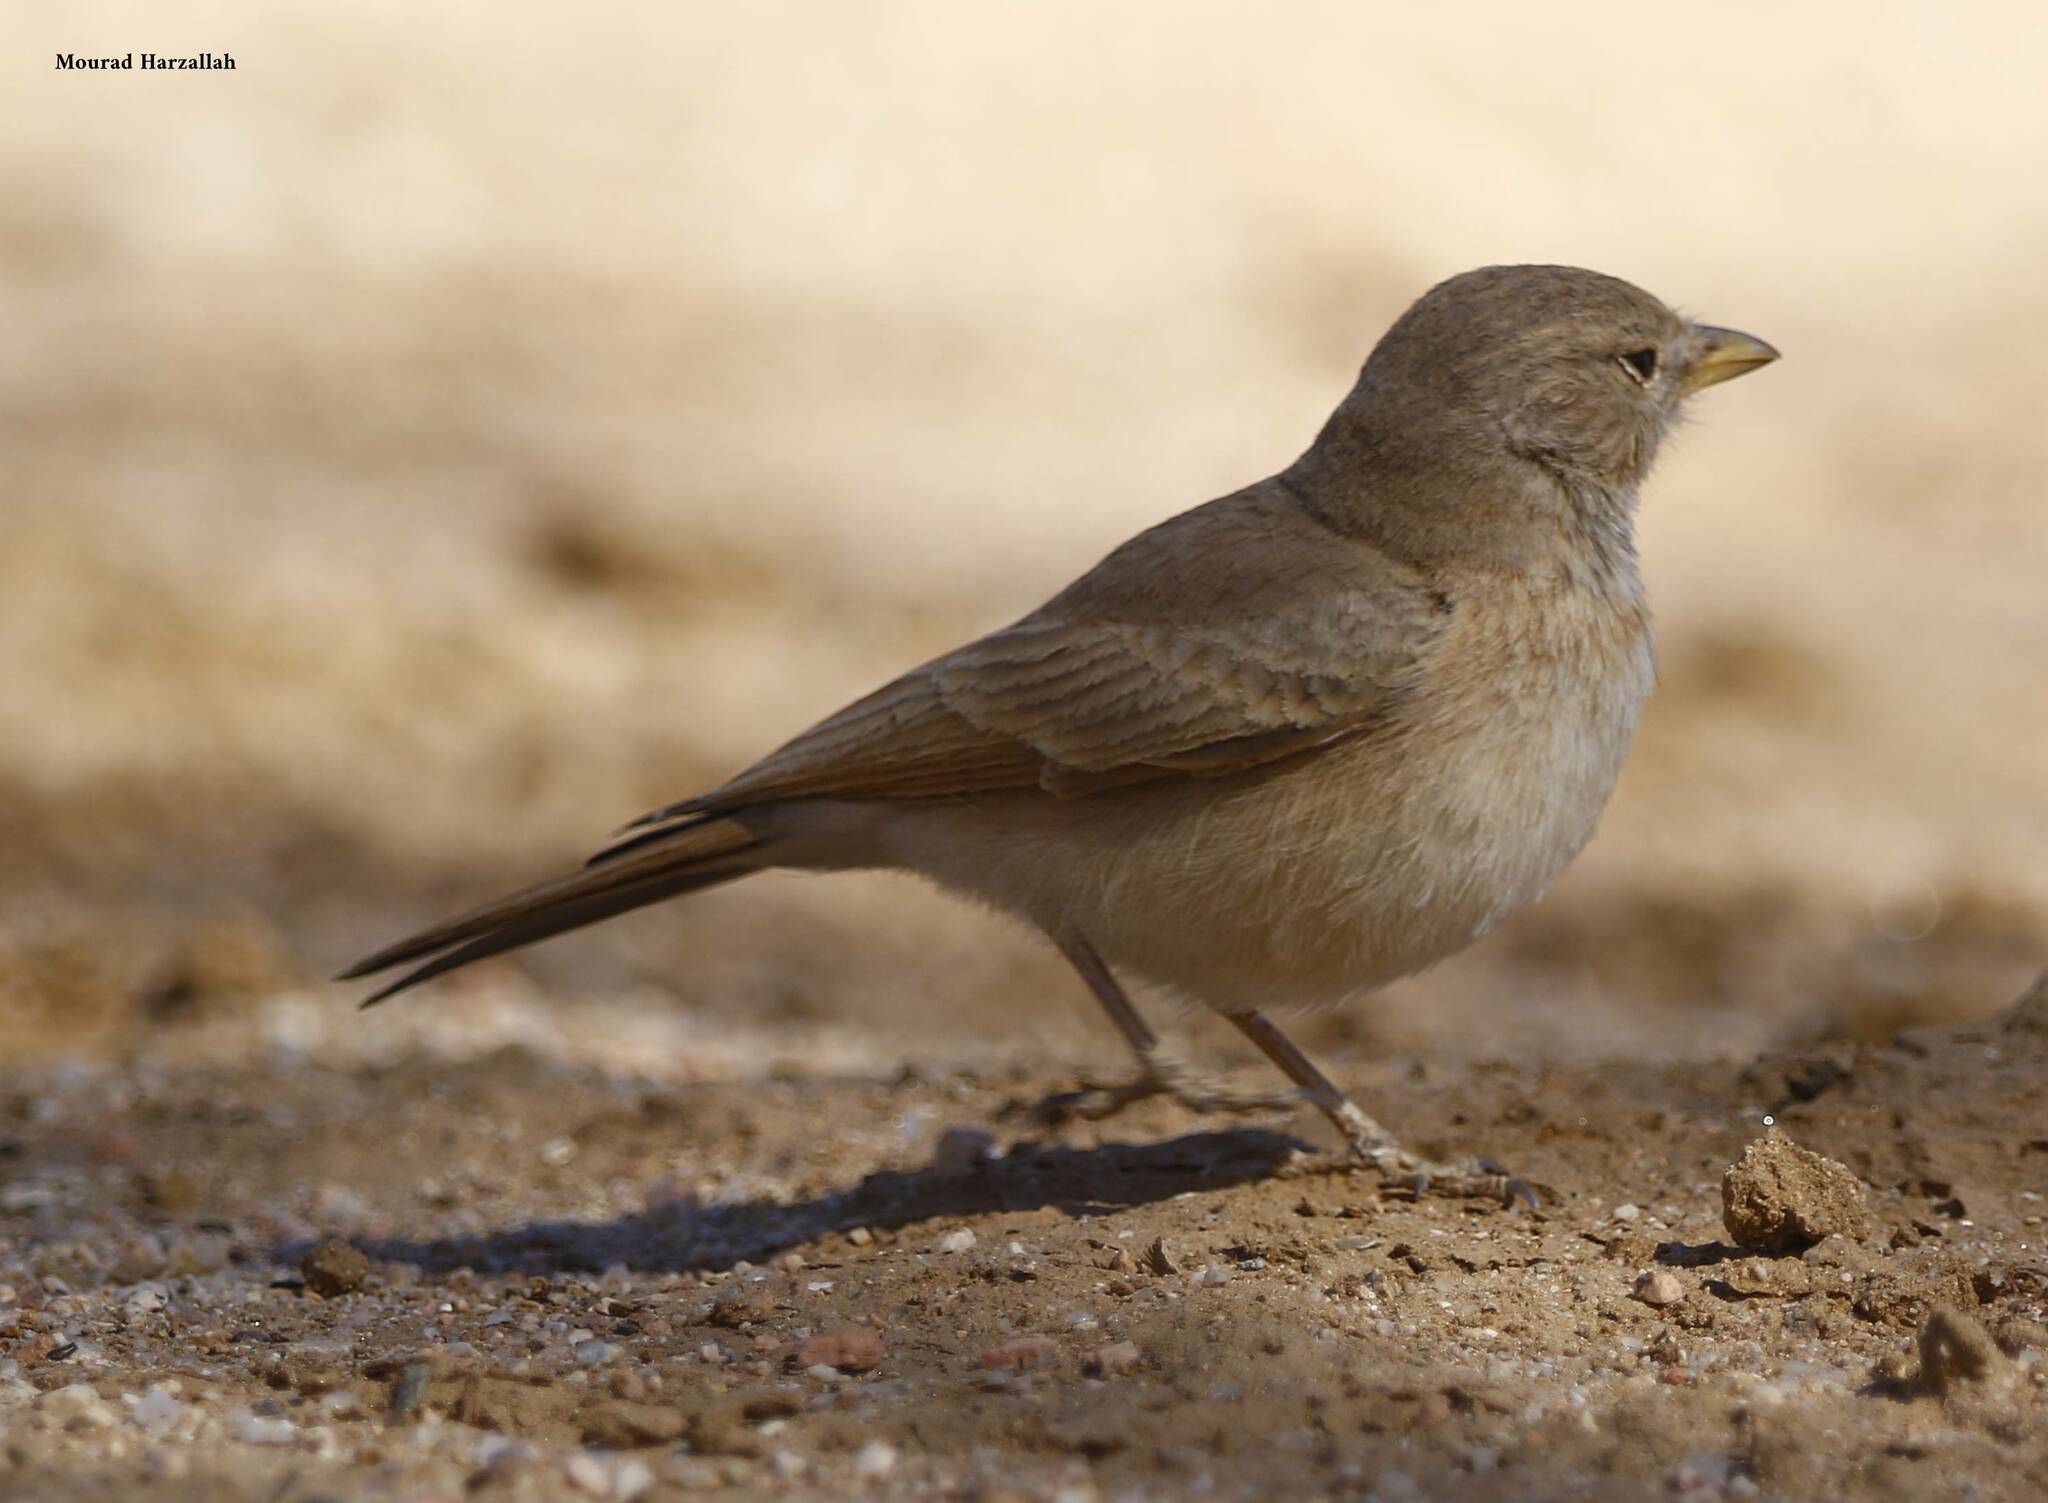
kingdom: Animalia
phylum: Chordata
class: Aves
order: Passeriformes
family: Alaudidae
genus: Ammomanes
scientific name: Ammomanes deserti
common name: Desert lark
